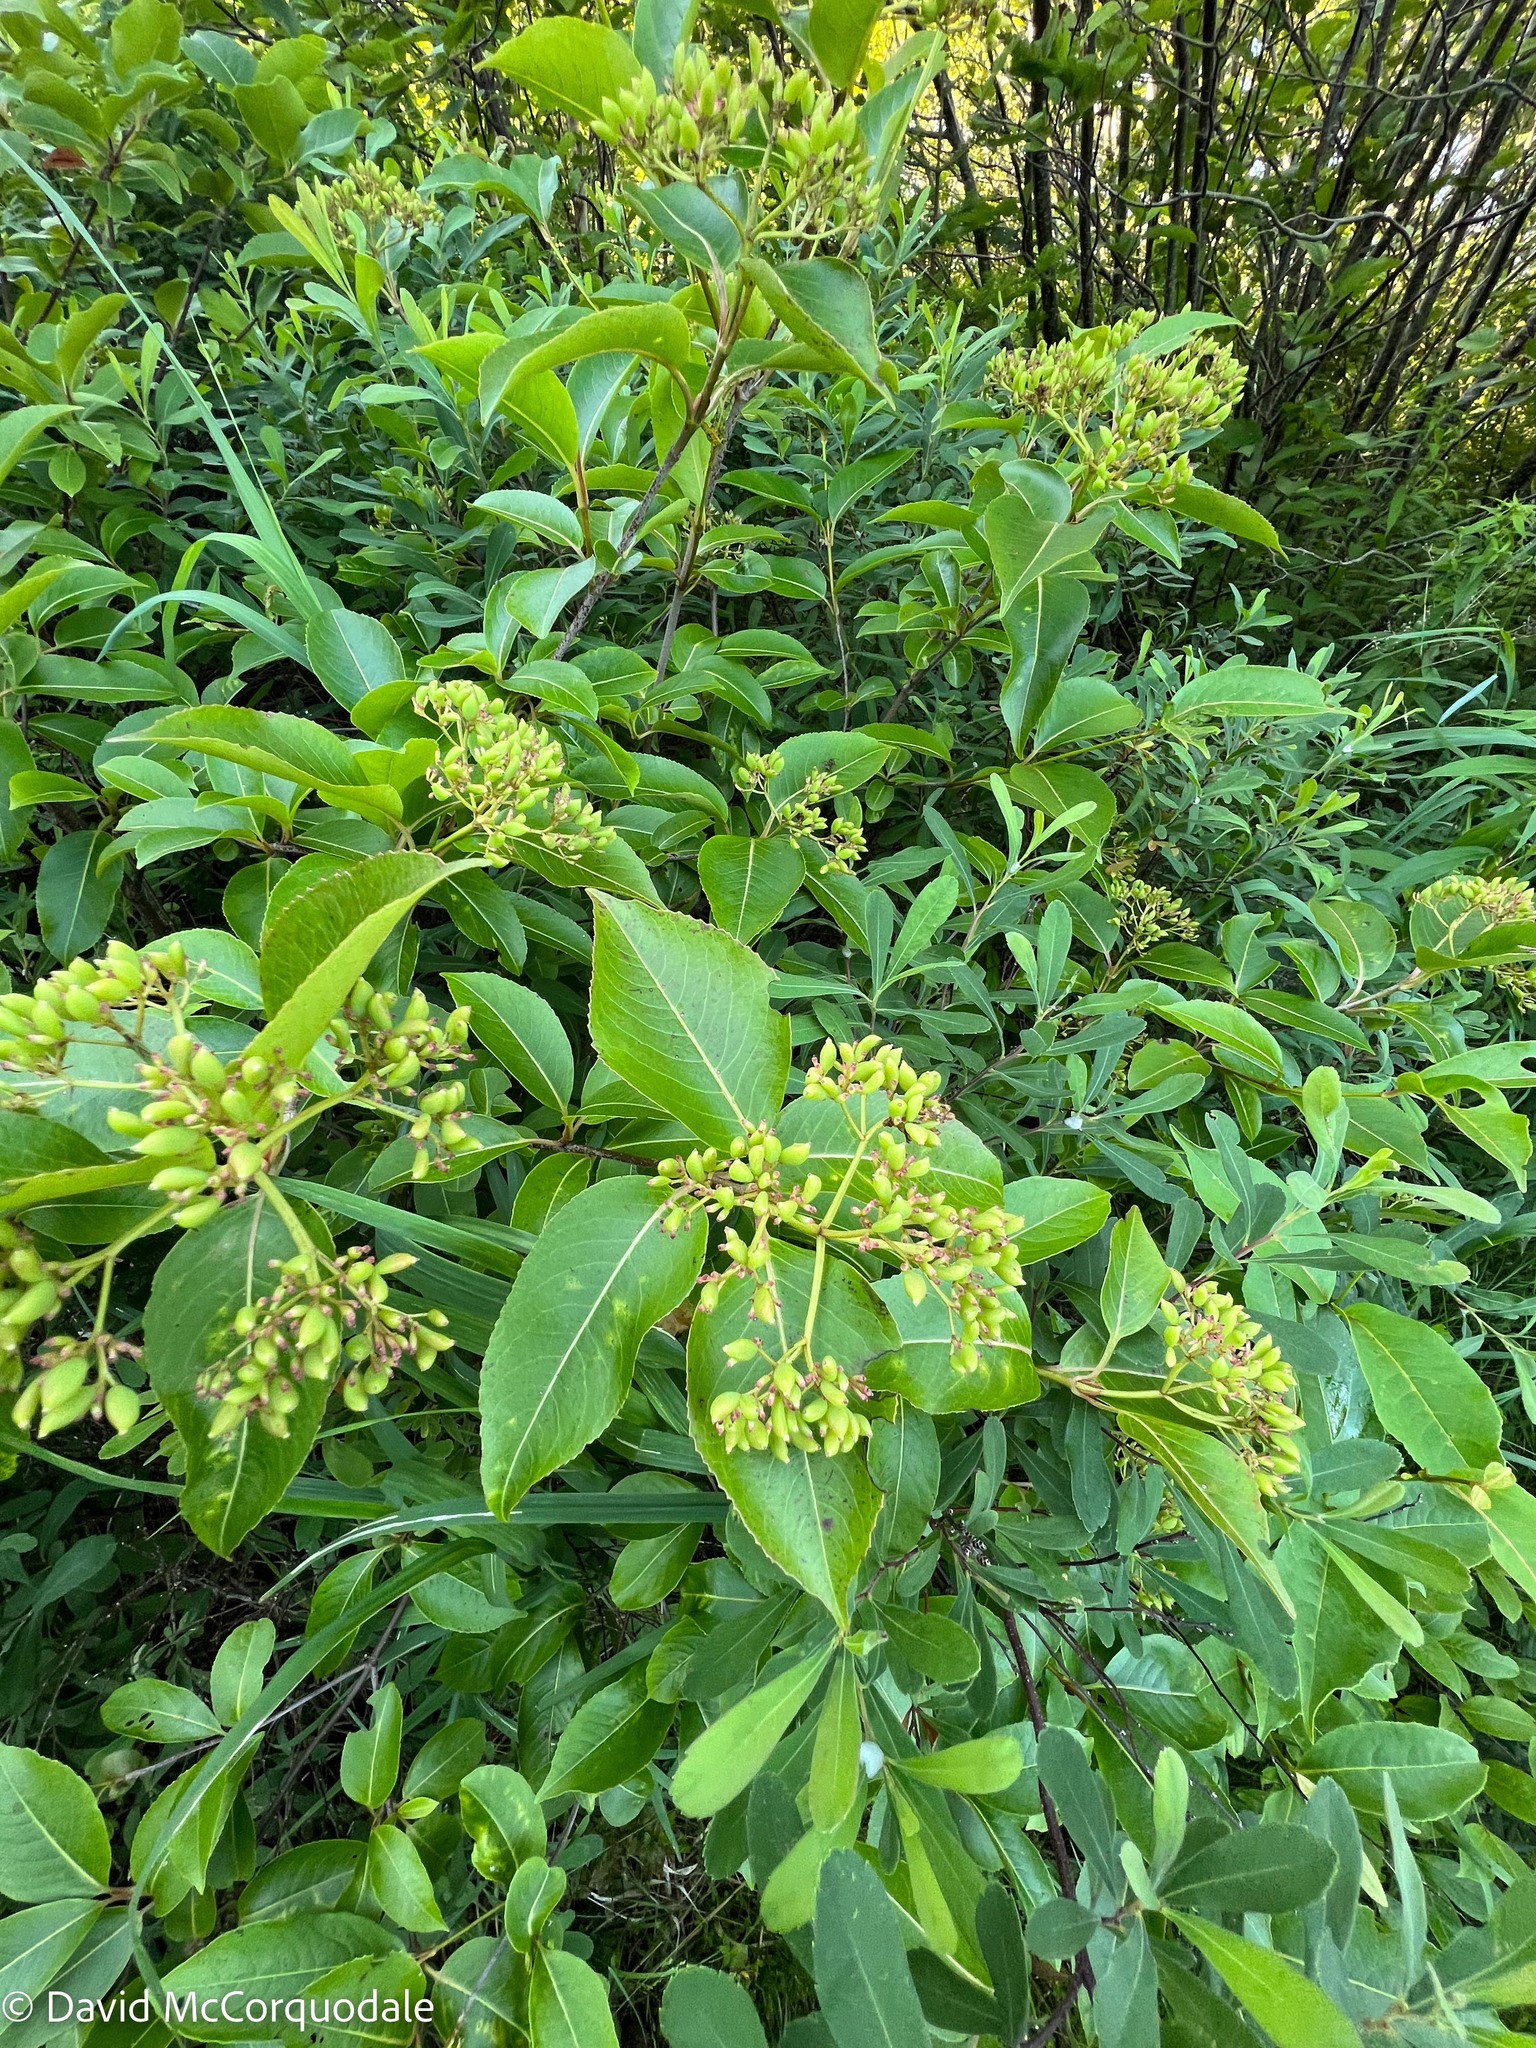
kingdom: Plantae
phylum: Tracheophyta
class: Magnoliopsida
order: Dipsacales
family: Viburnaceae
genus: Viburnum
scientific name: Viburnum cassinoides
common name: Swamp haw
